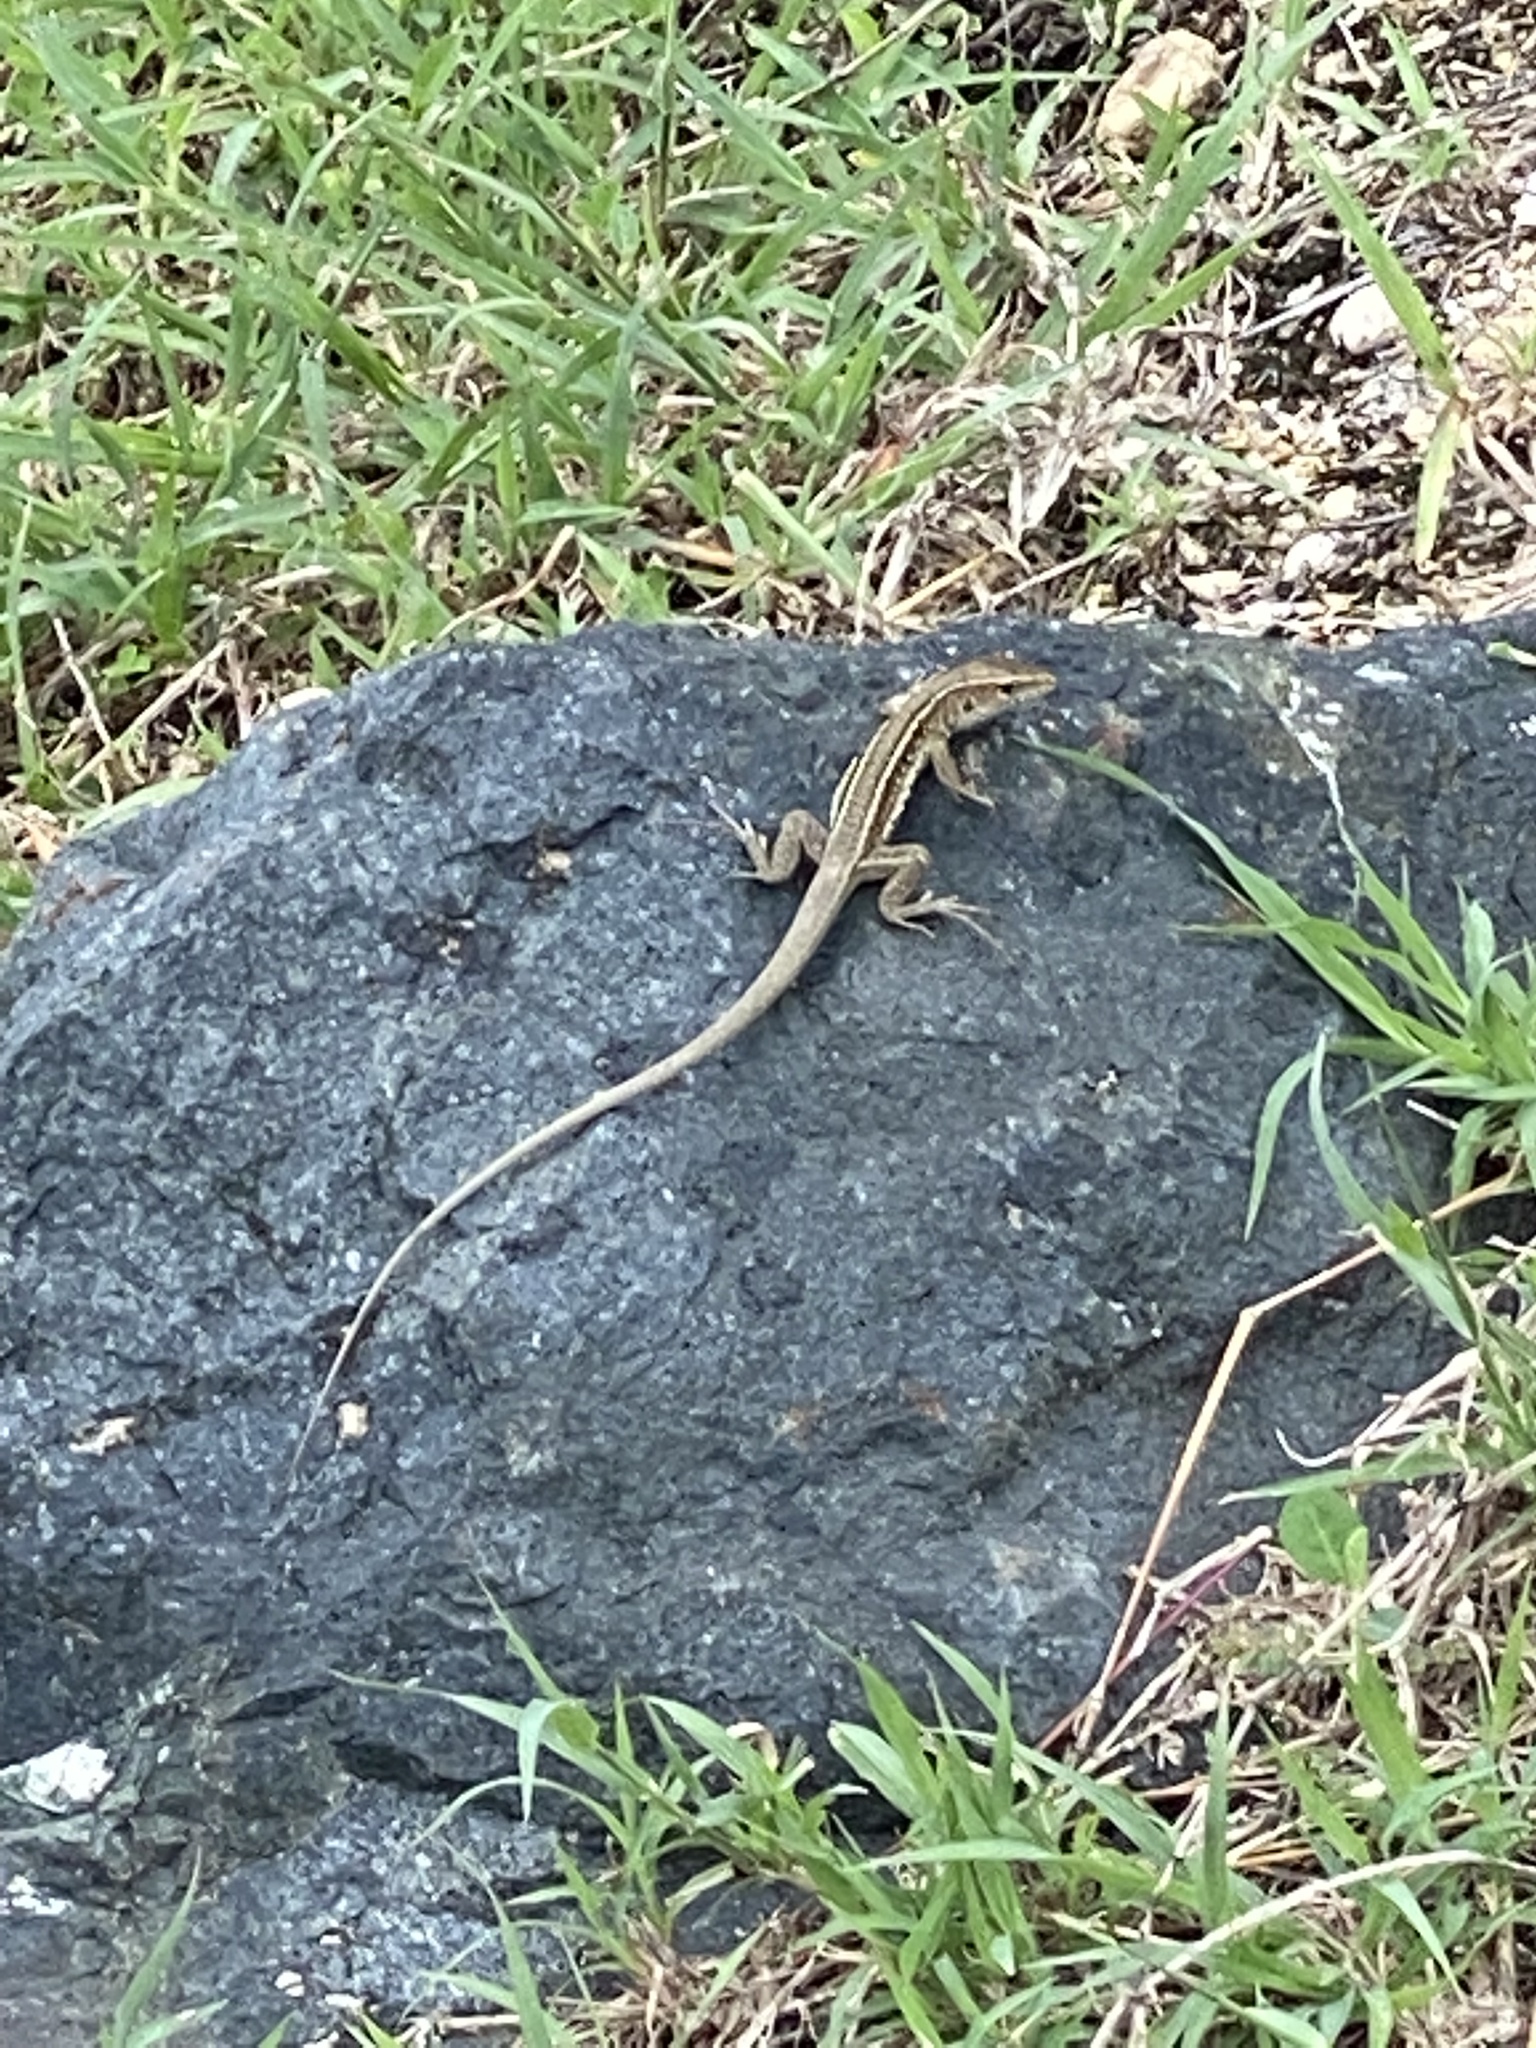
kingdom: Animalia
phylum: Chordata
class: Squamata
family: Teiidae
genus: Pholidoscelis
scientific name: Pholidoscelis exsul
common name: Common puerto rican ameiva
